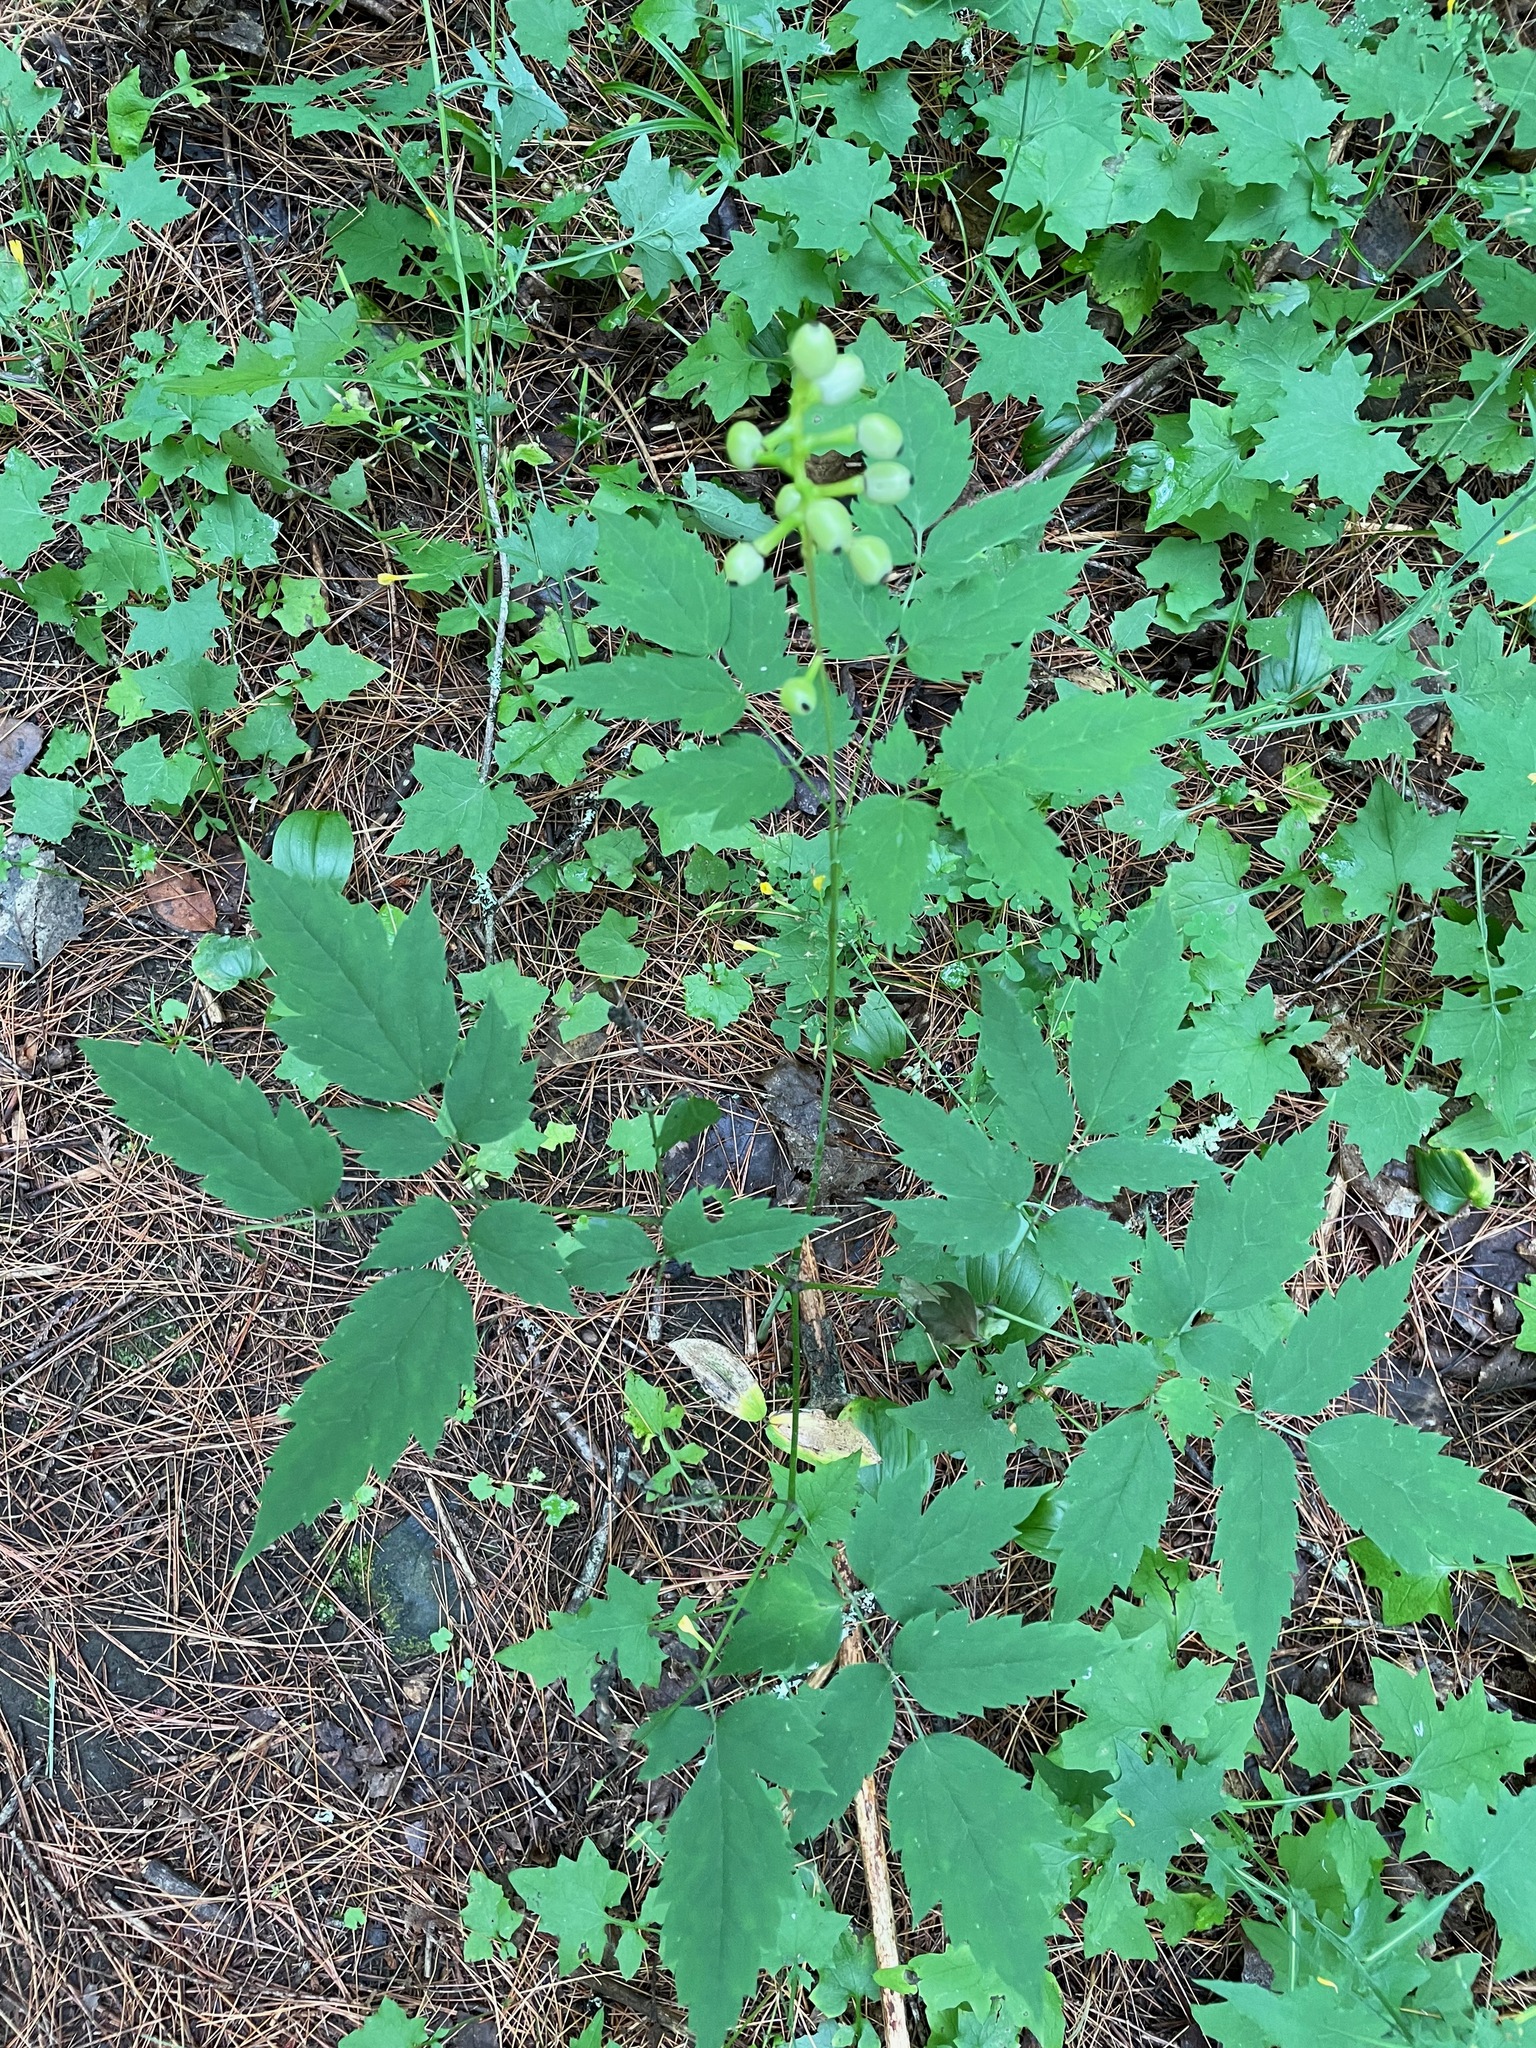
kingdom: Plantae
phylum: Tracheophyta
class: Magnoliopsida
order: Ranunculales
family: Ranunculaceae
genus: Actaea
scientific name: Actaea pachypoda
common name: Doll's-eyes
